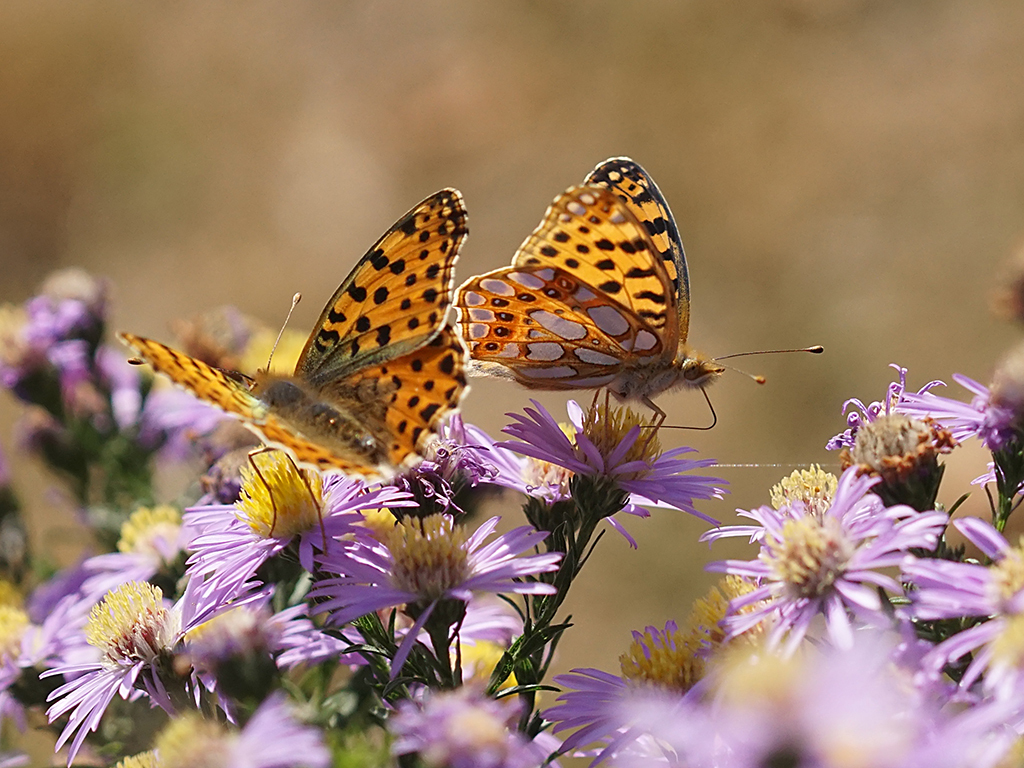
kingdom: Animalia
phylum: Arthropoda
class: Insecta
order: Lepidoptera
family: Nymphalidae
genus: Issoria
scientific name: Issoria lathonia
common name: Queen of spain fritillary
